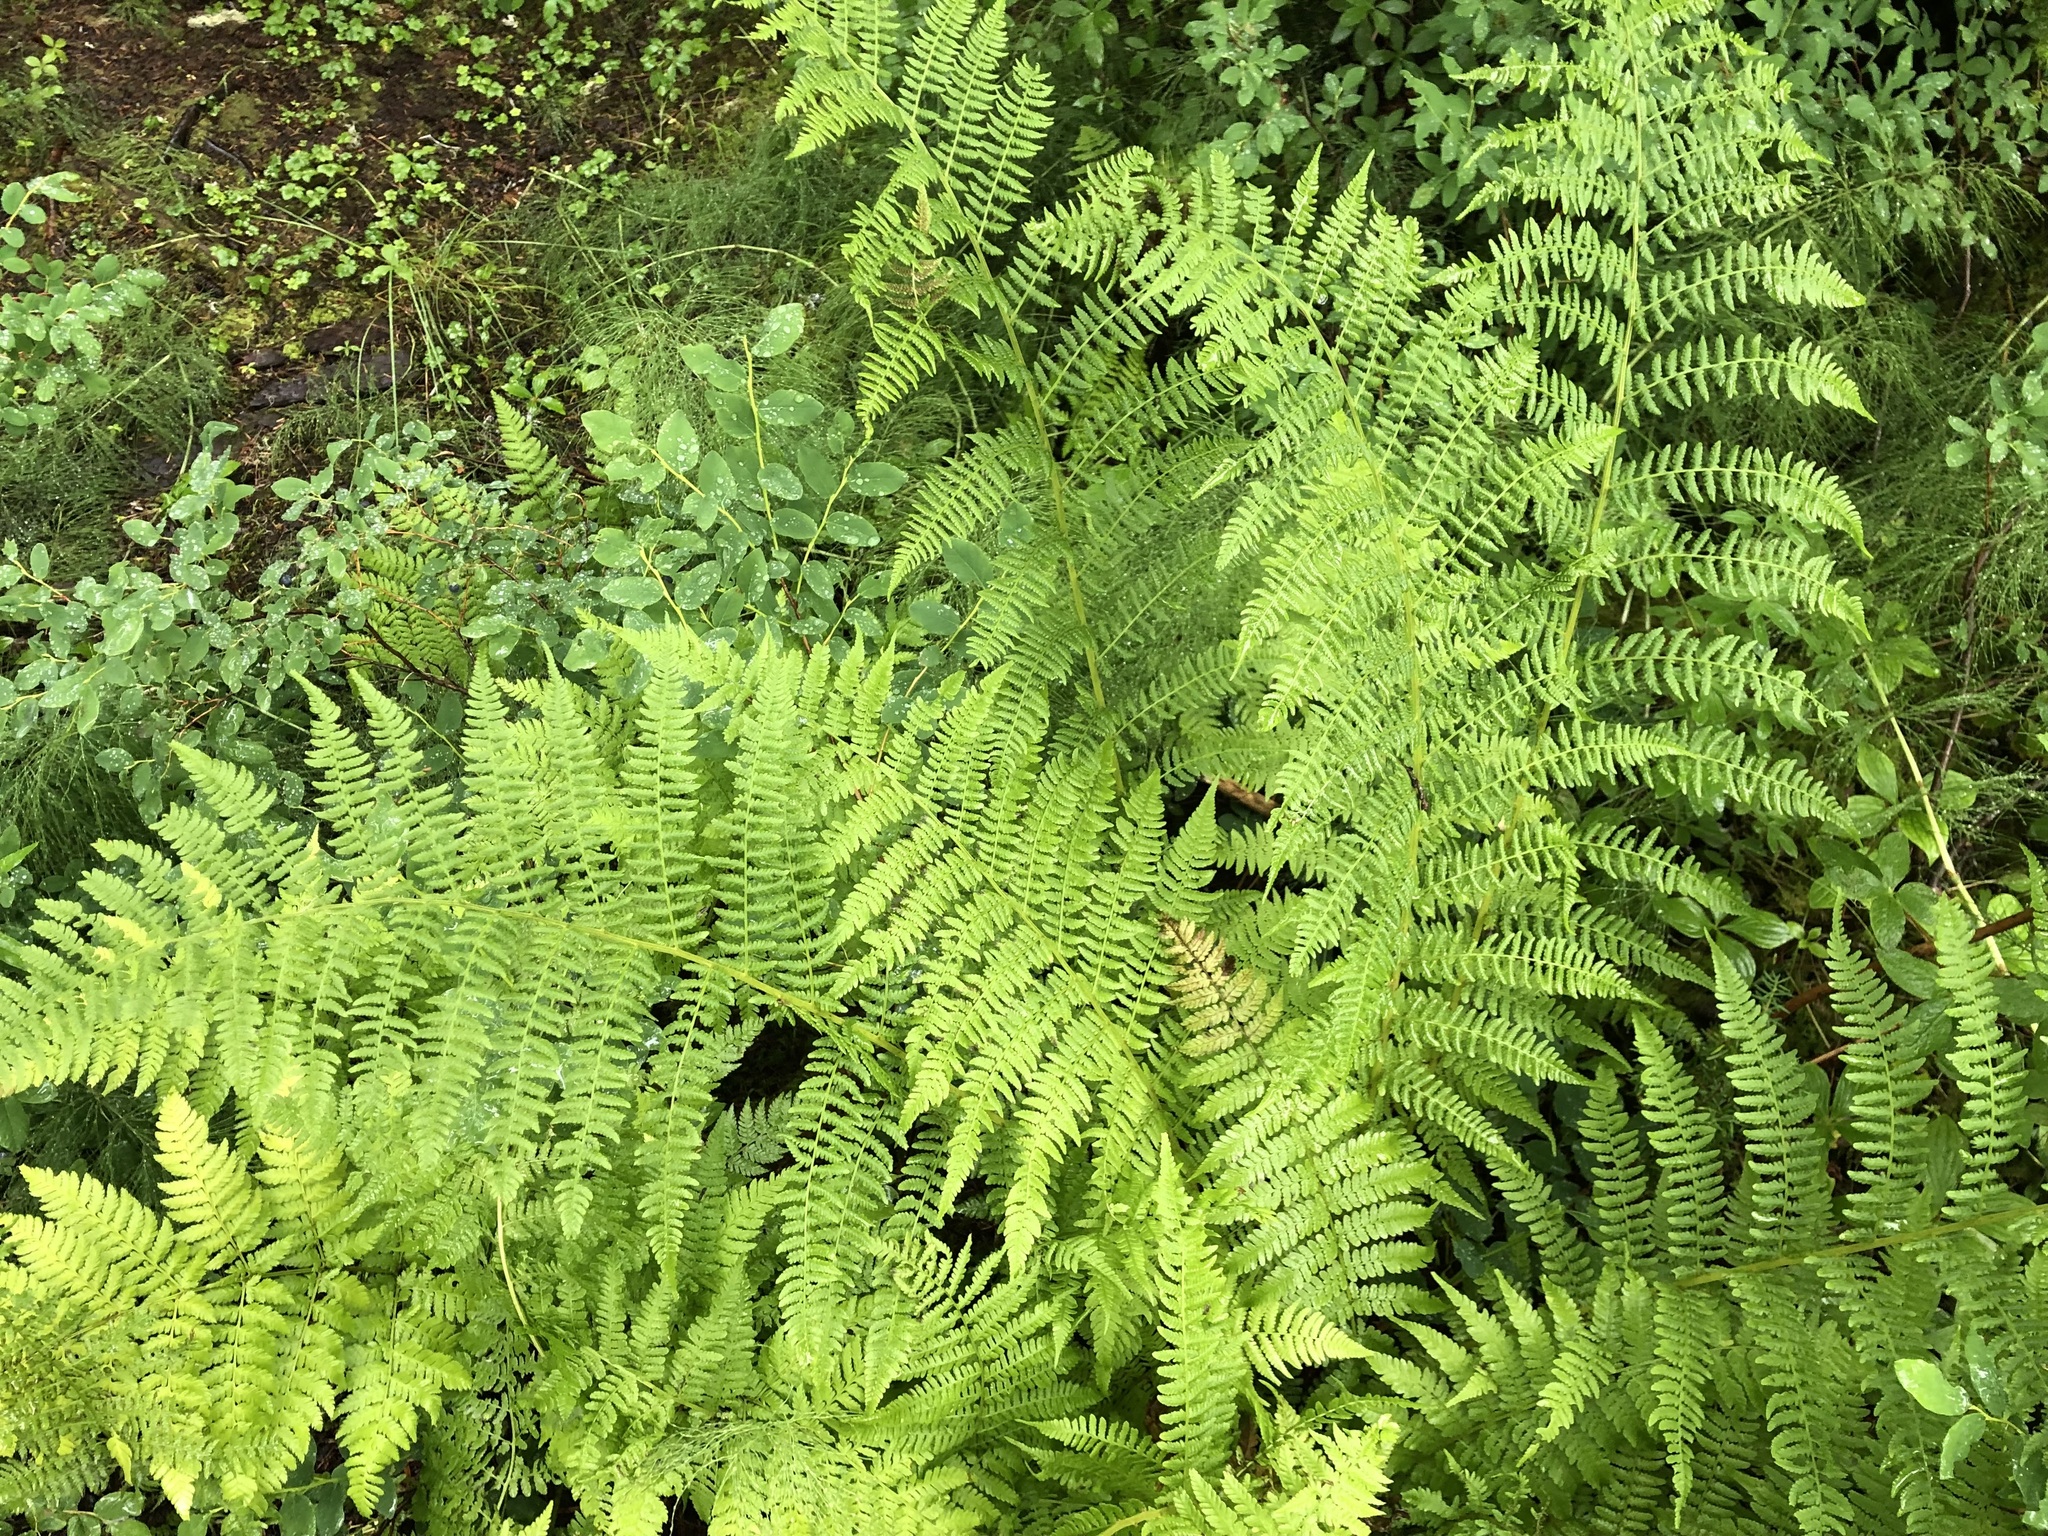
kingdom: Plantae
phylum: Tracheophyta
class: Polypodiopsida
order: Polypodiales
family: Athyriaceae
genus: Athyrium
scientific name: Athyrium filix-femina
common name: Lady fern
